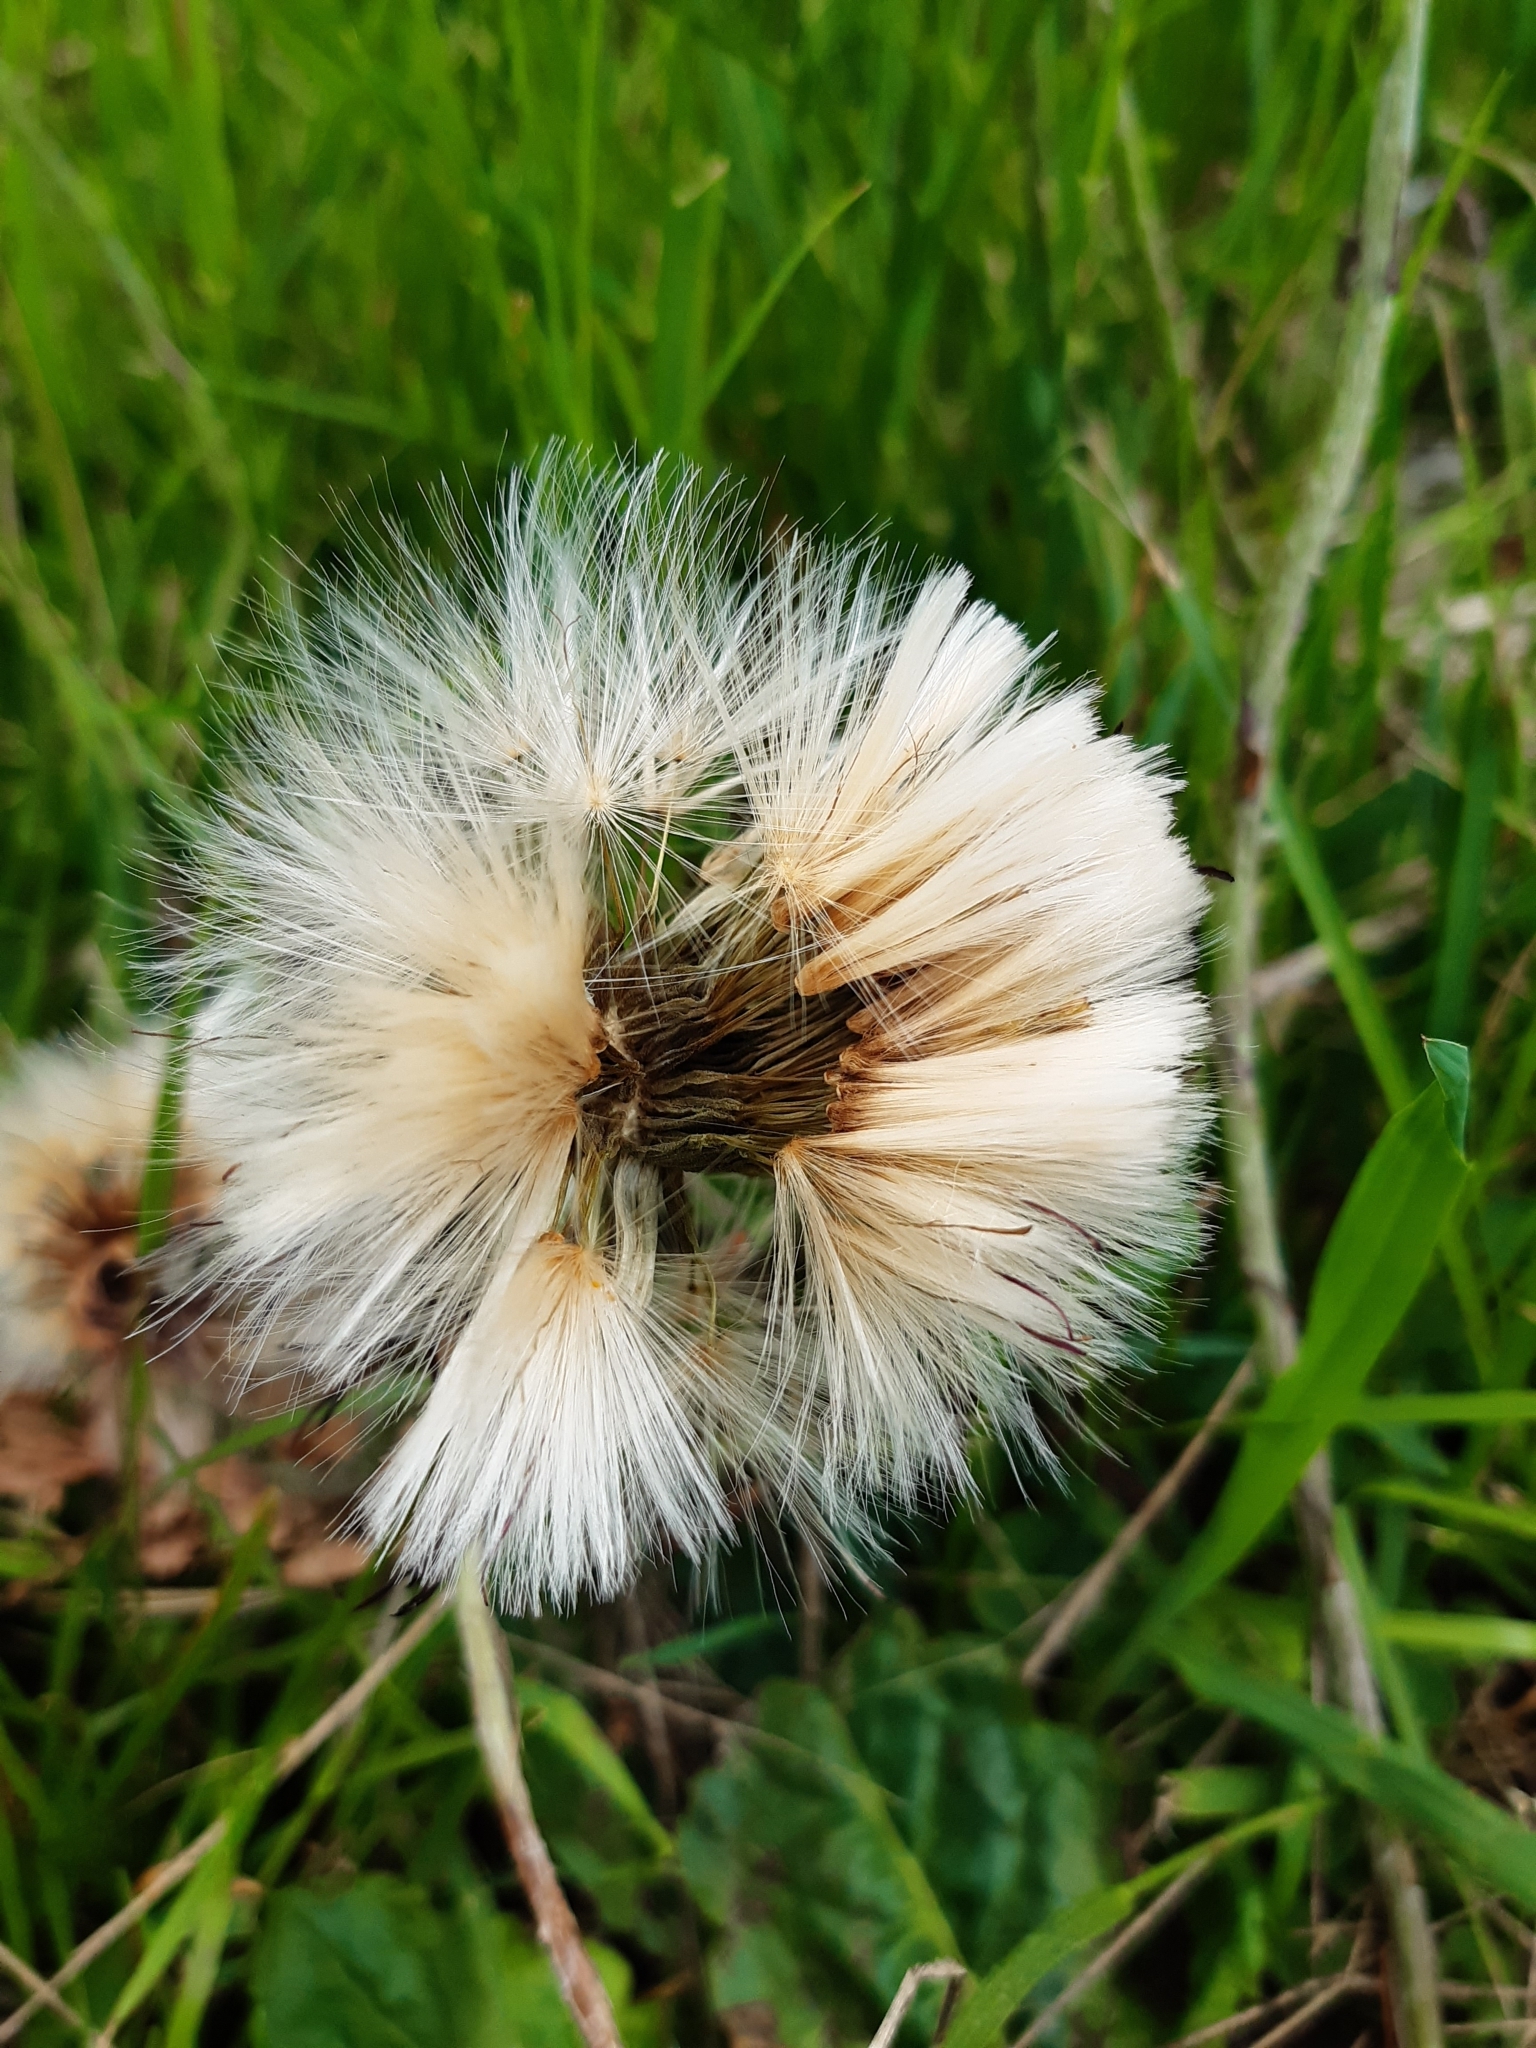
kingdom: Plantae
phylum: Tracheophyta
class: Magnoliopsida
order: Asterales
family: Asteraceae
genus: Chaptalia
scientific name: Chaptalia arechavaletae
